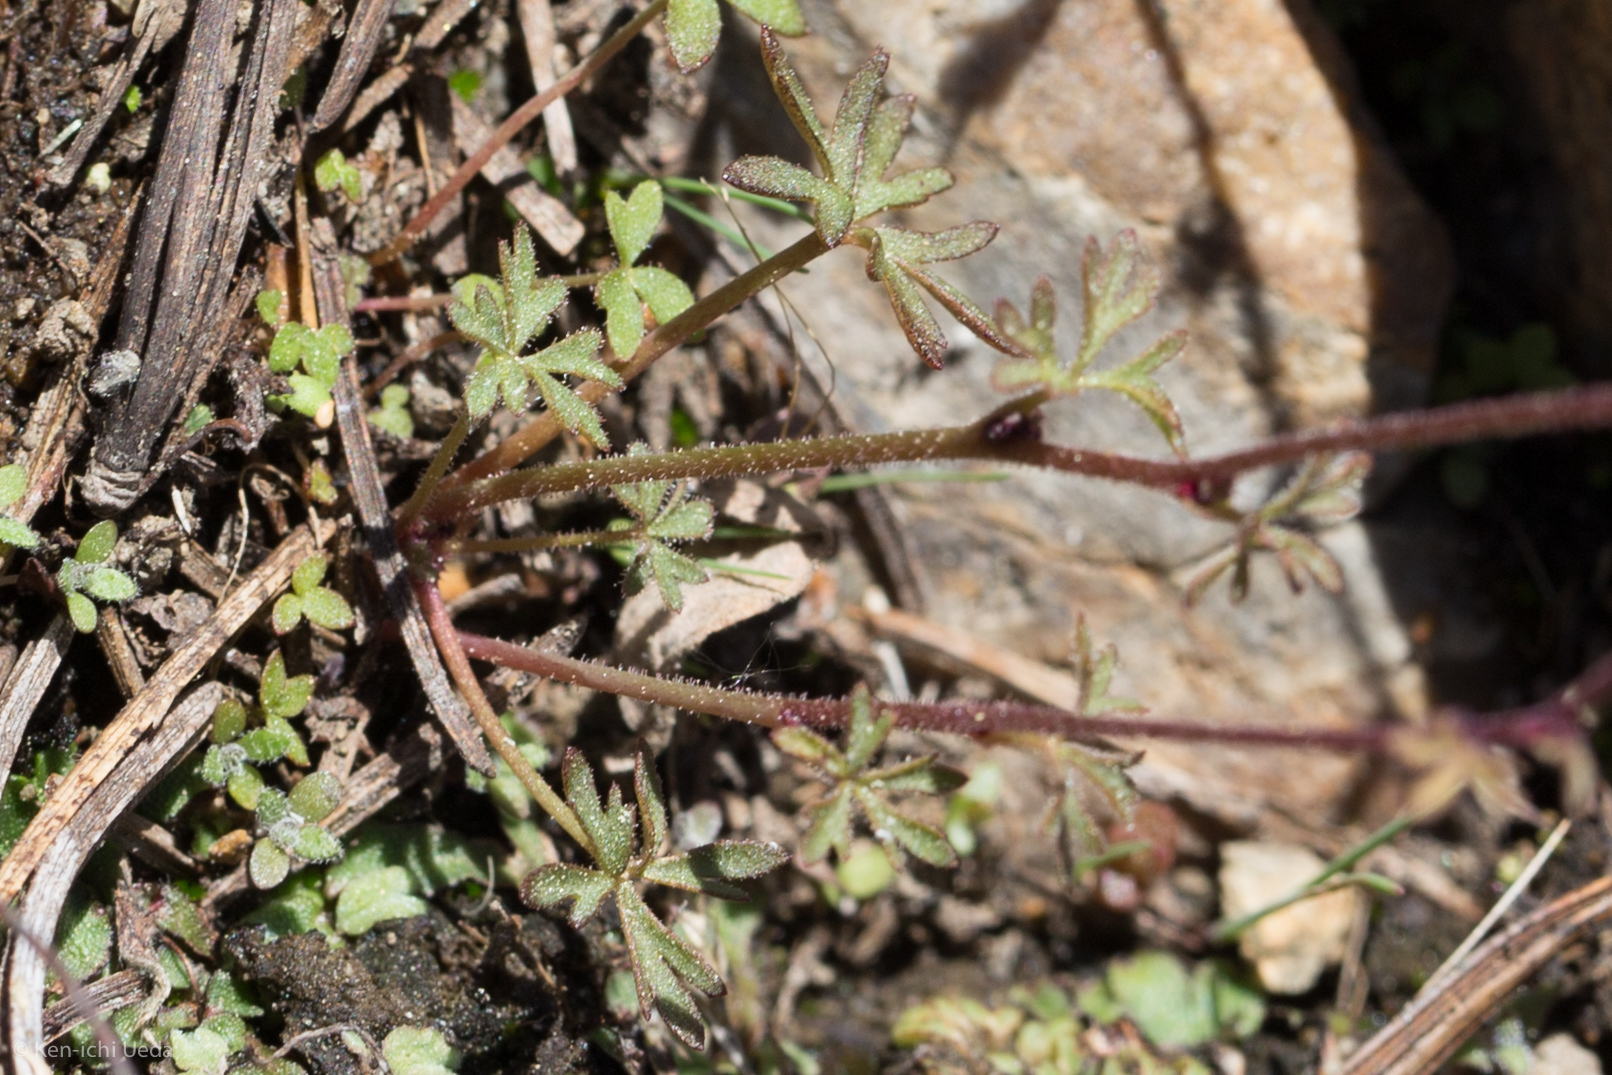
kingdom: Plantae
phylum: Tracheophyta
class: Magnoliopsida
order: Saxifragales
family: Saxifragaceae
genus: Lithophragma
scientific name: Lithophragma glabrum
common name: Bulbous prairie-star
